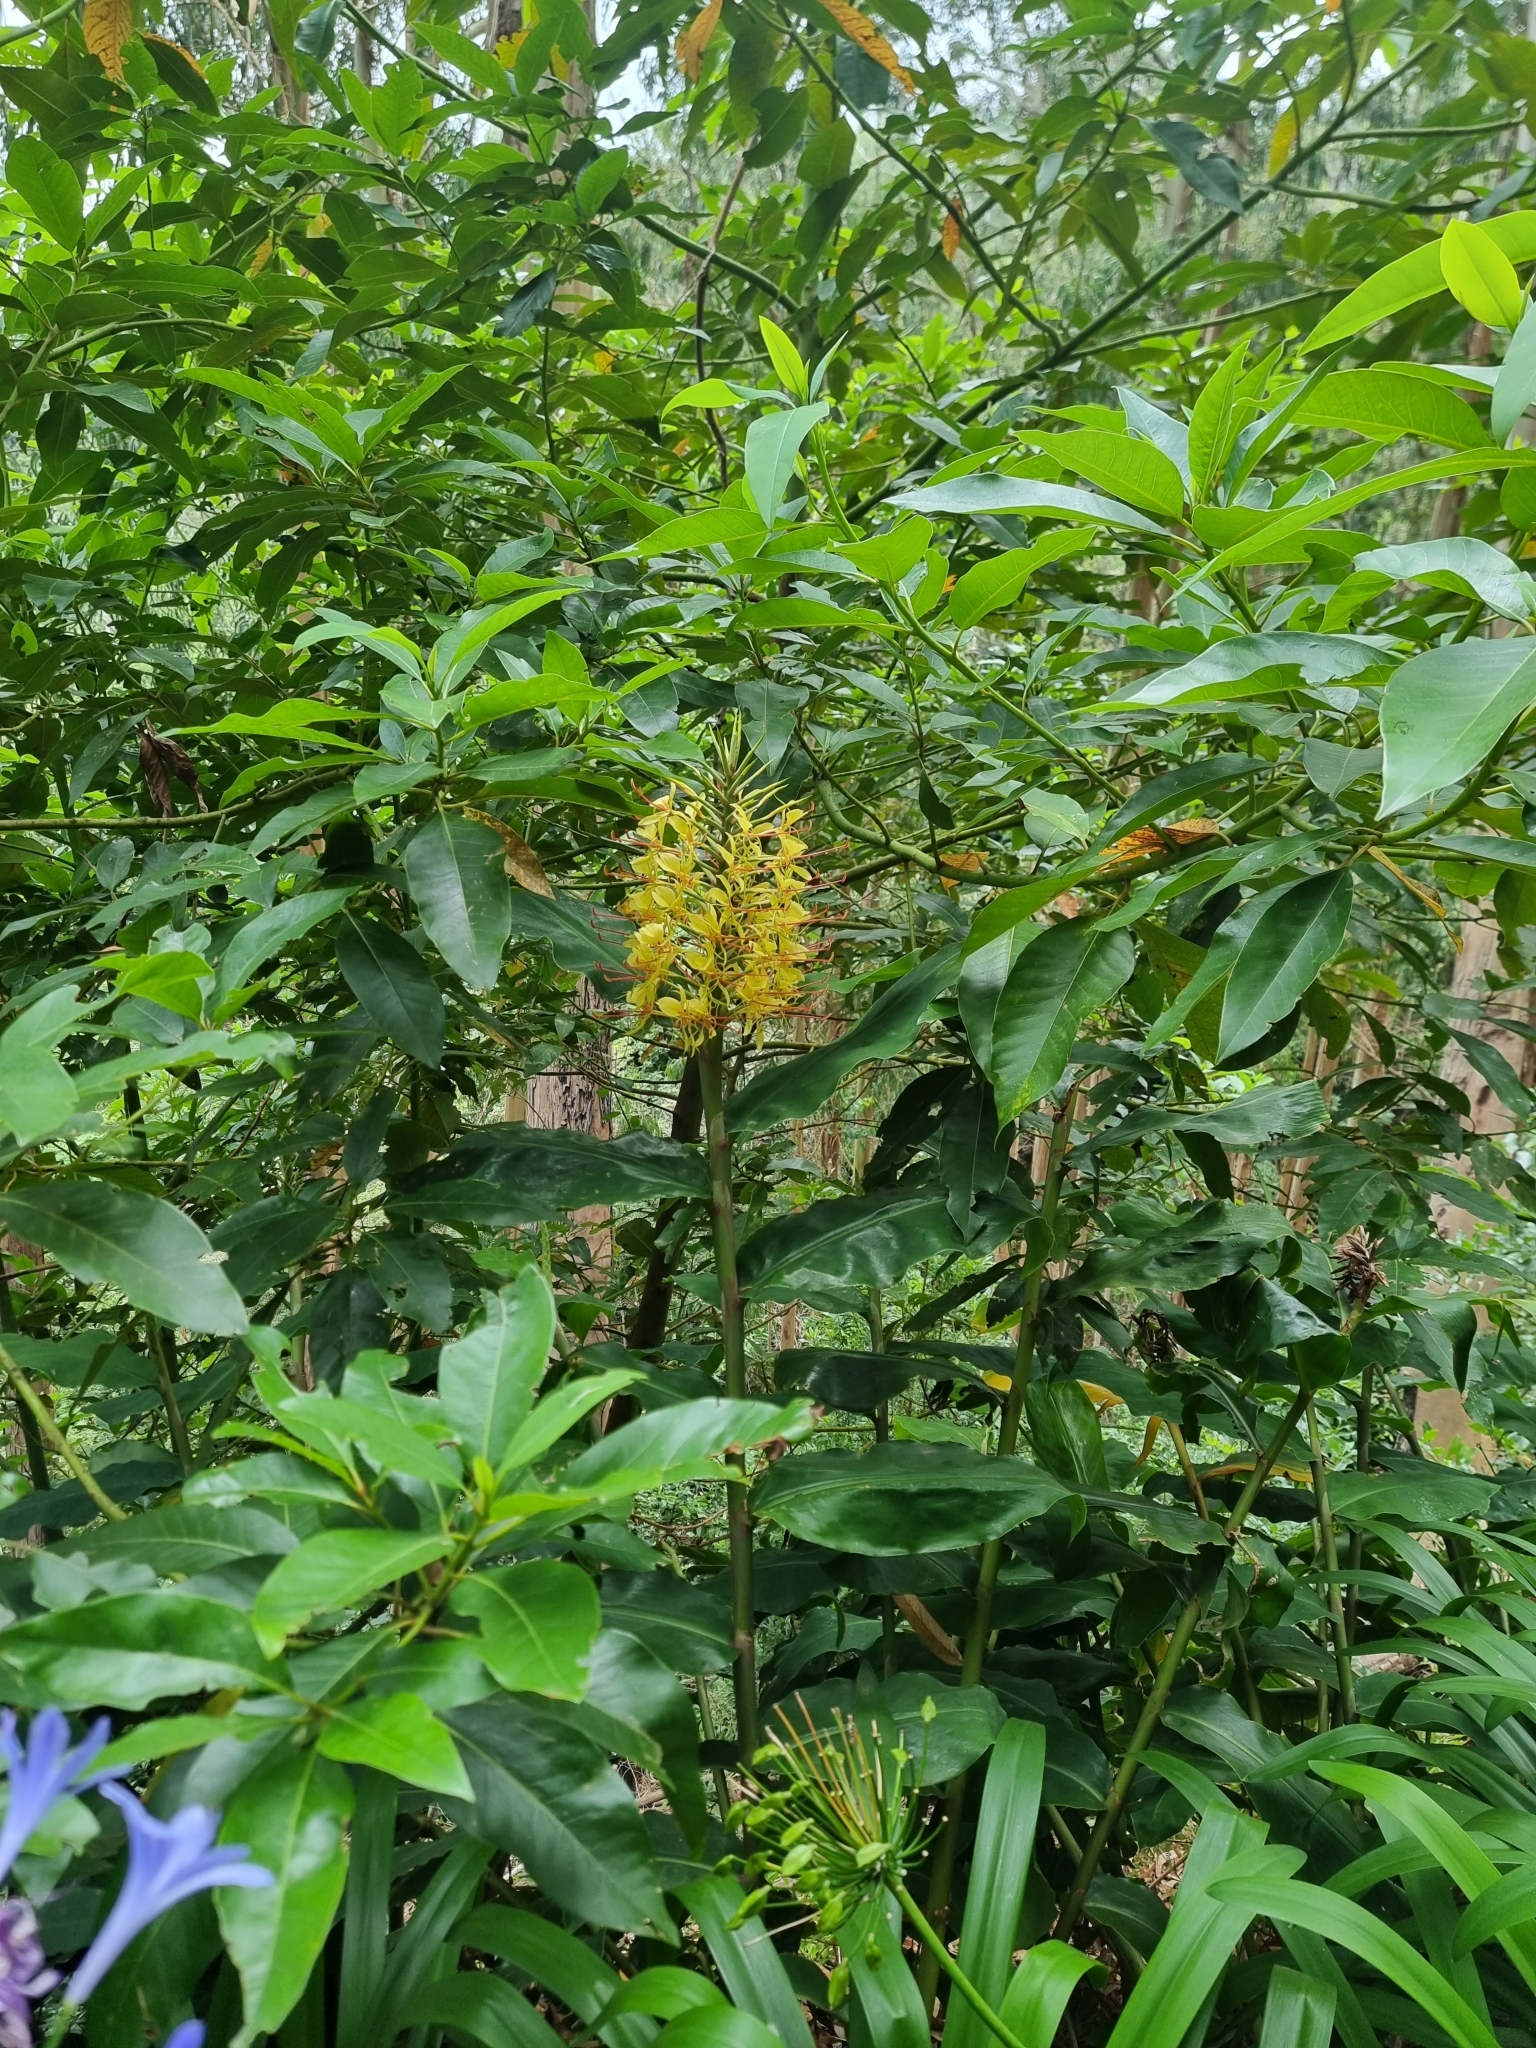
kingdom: Plantae
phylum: Tracheophyta
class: Liliopsida
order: Zingiberales
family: Zingiberaceae
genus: Hedychium
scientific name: Hedychium gardnerianum
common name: Himalayan ginger
